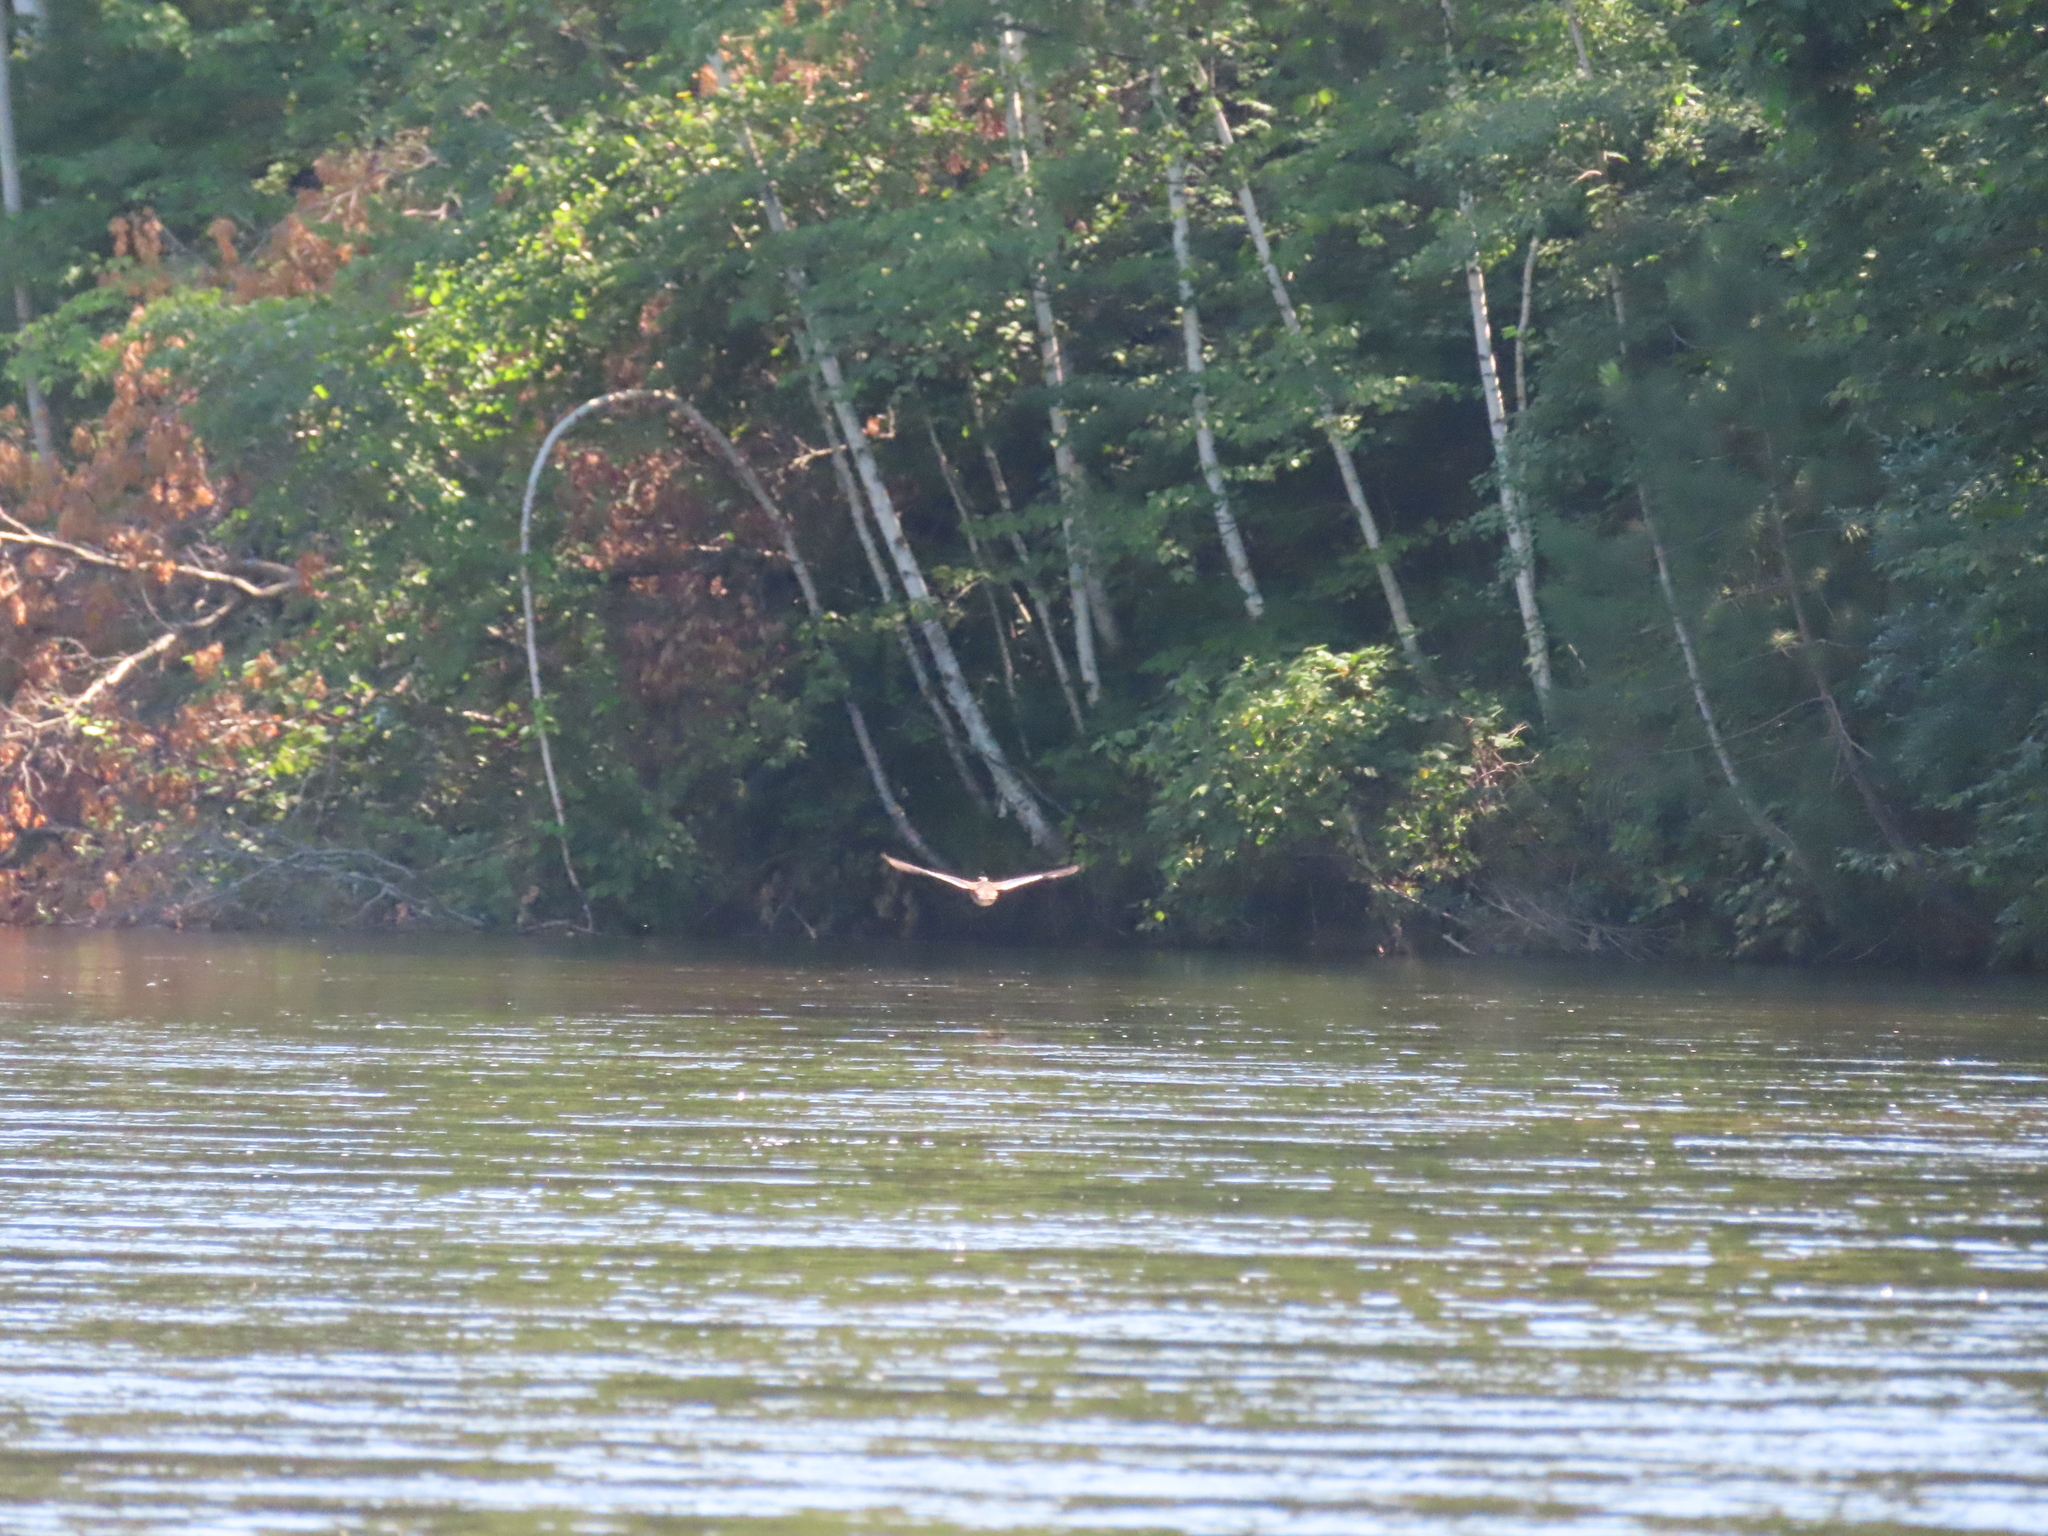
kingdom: Animalia
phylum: Chordata
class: Aves
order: Anseriformes
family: Anatidae
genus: Aix
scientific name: Aix sponsa
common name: Wood duck
